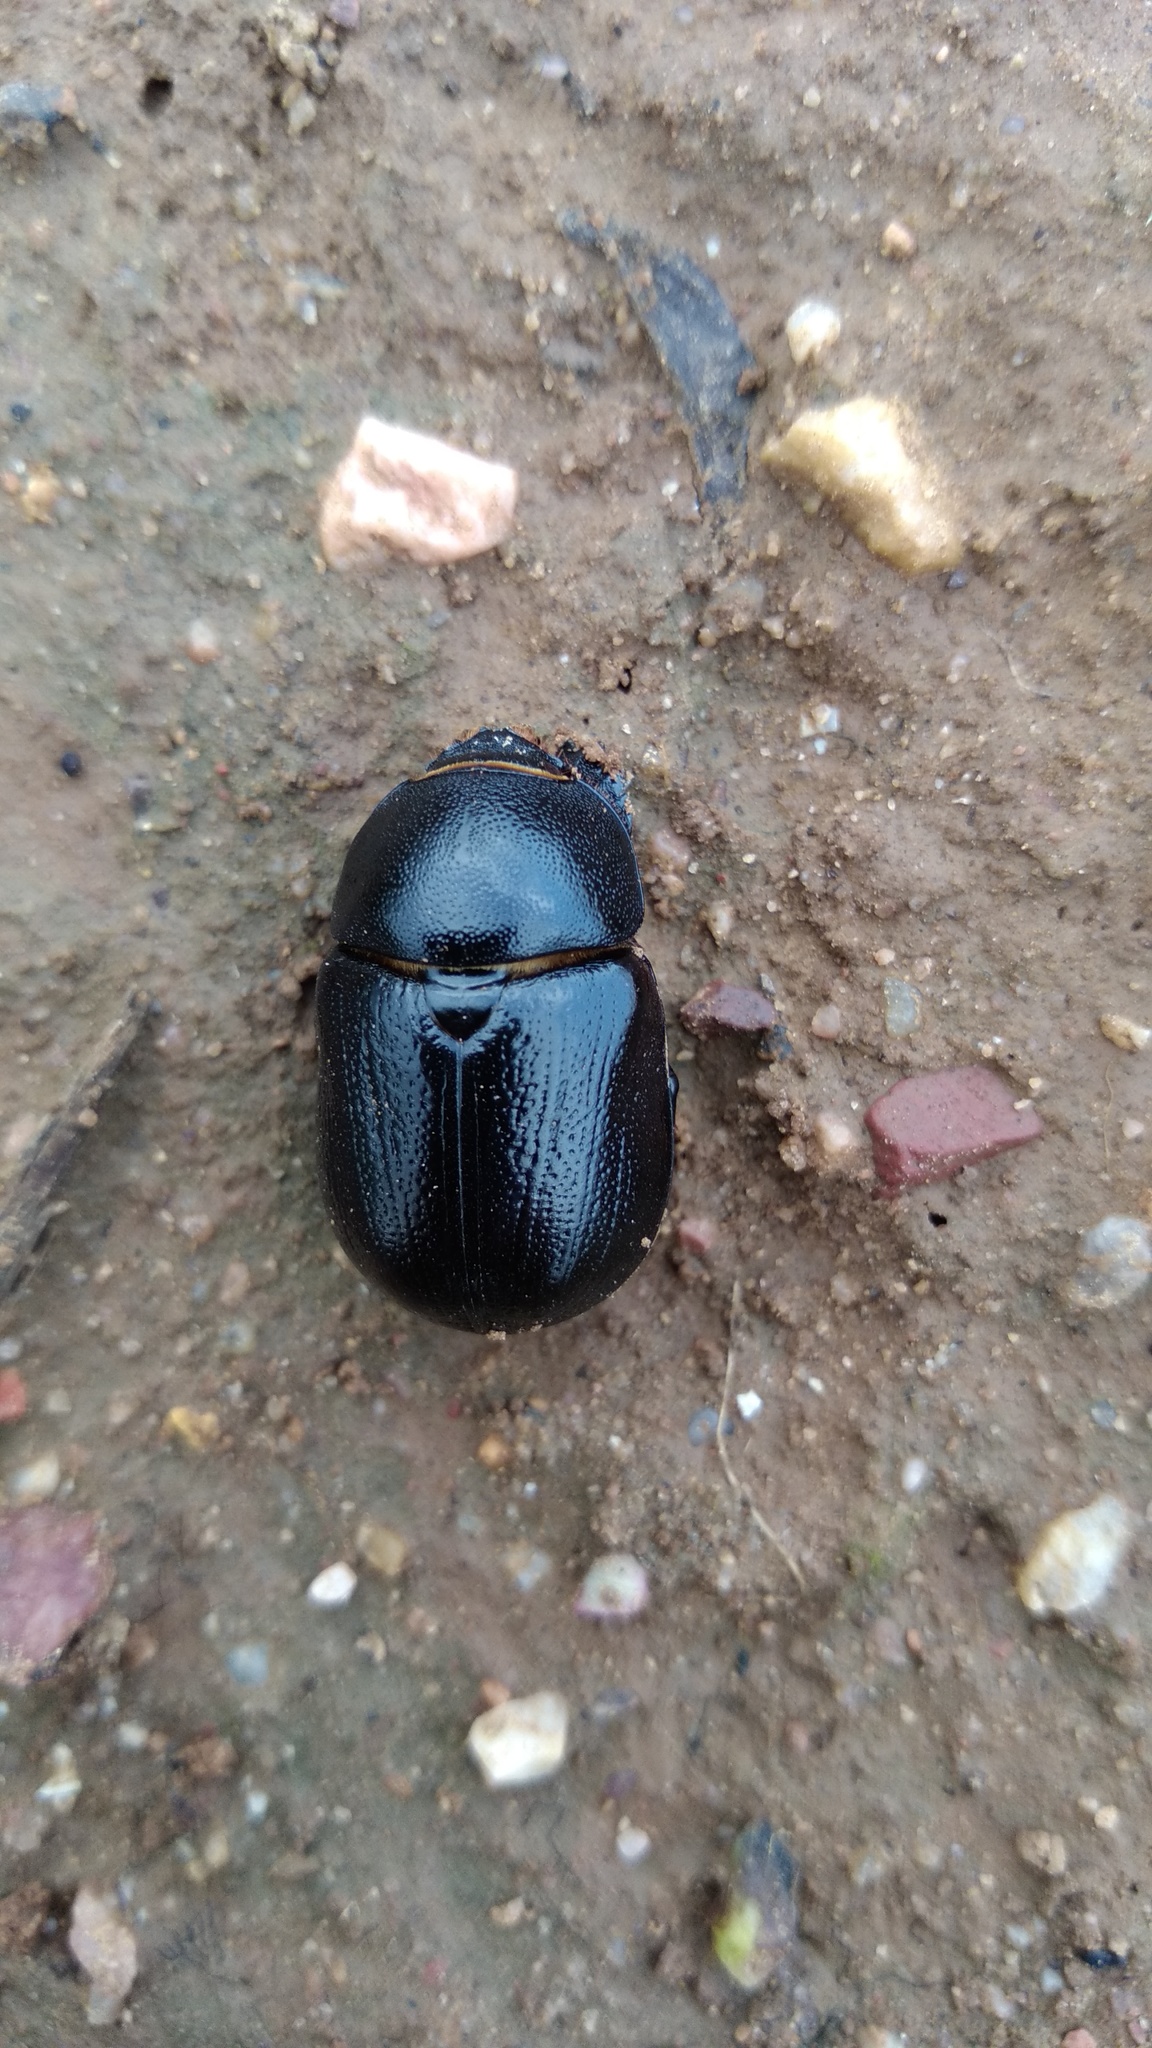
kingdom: Animalia
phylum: Arthropoda
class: Insecta
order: Coleoptera
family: Scarabaeidae
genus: Pentodon
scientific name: Pentodon bidens
